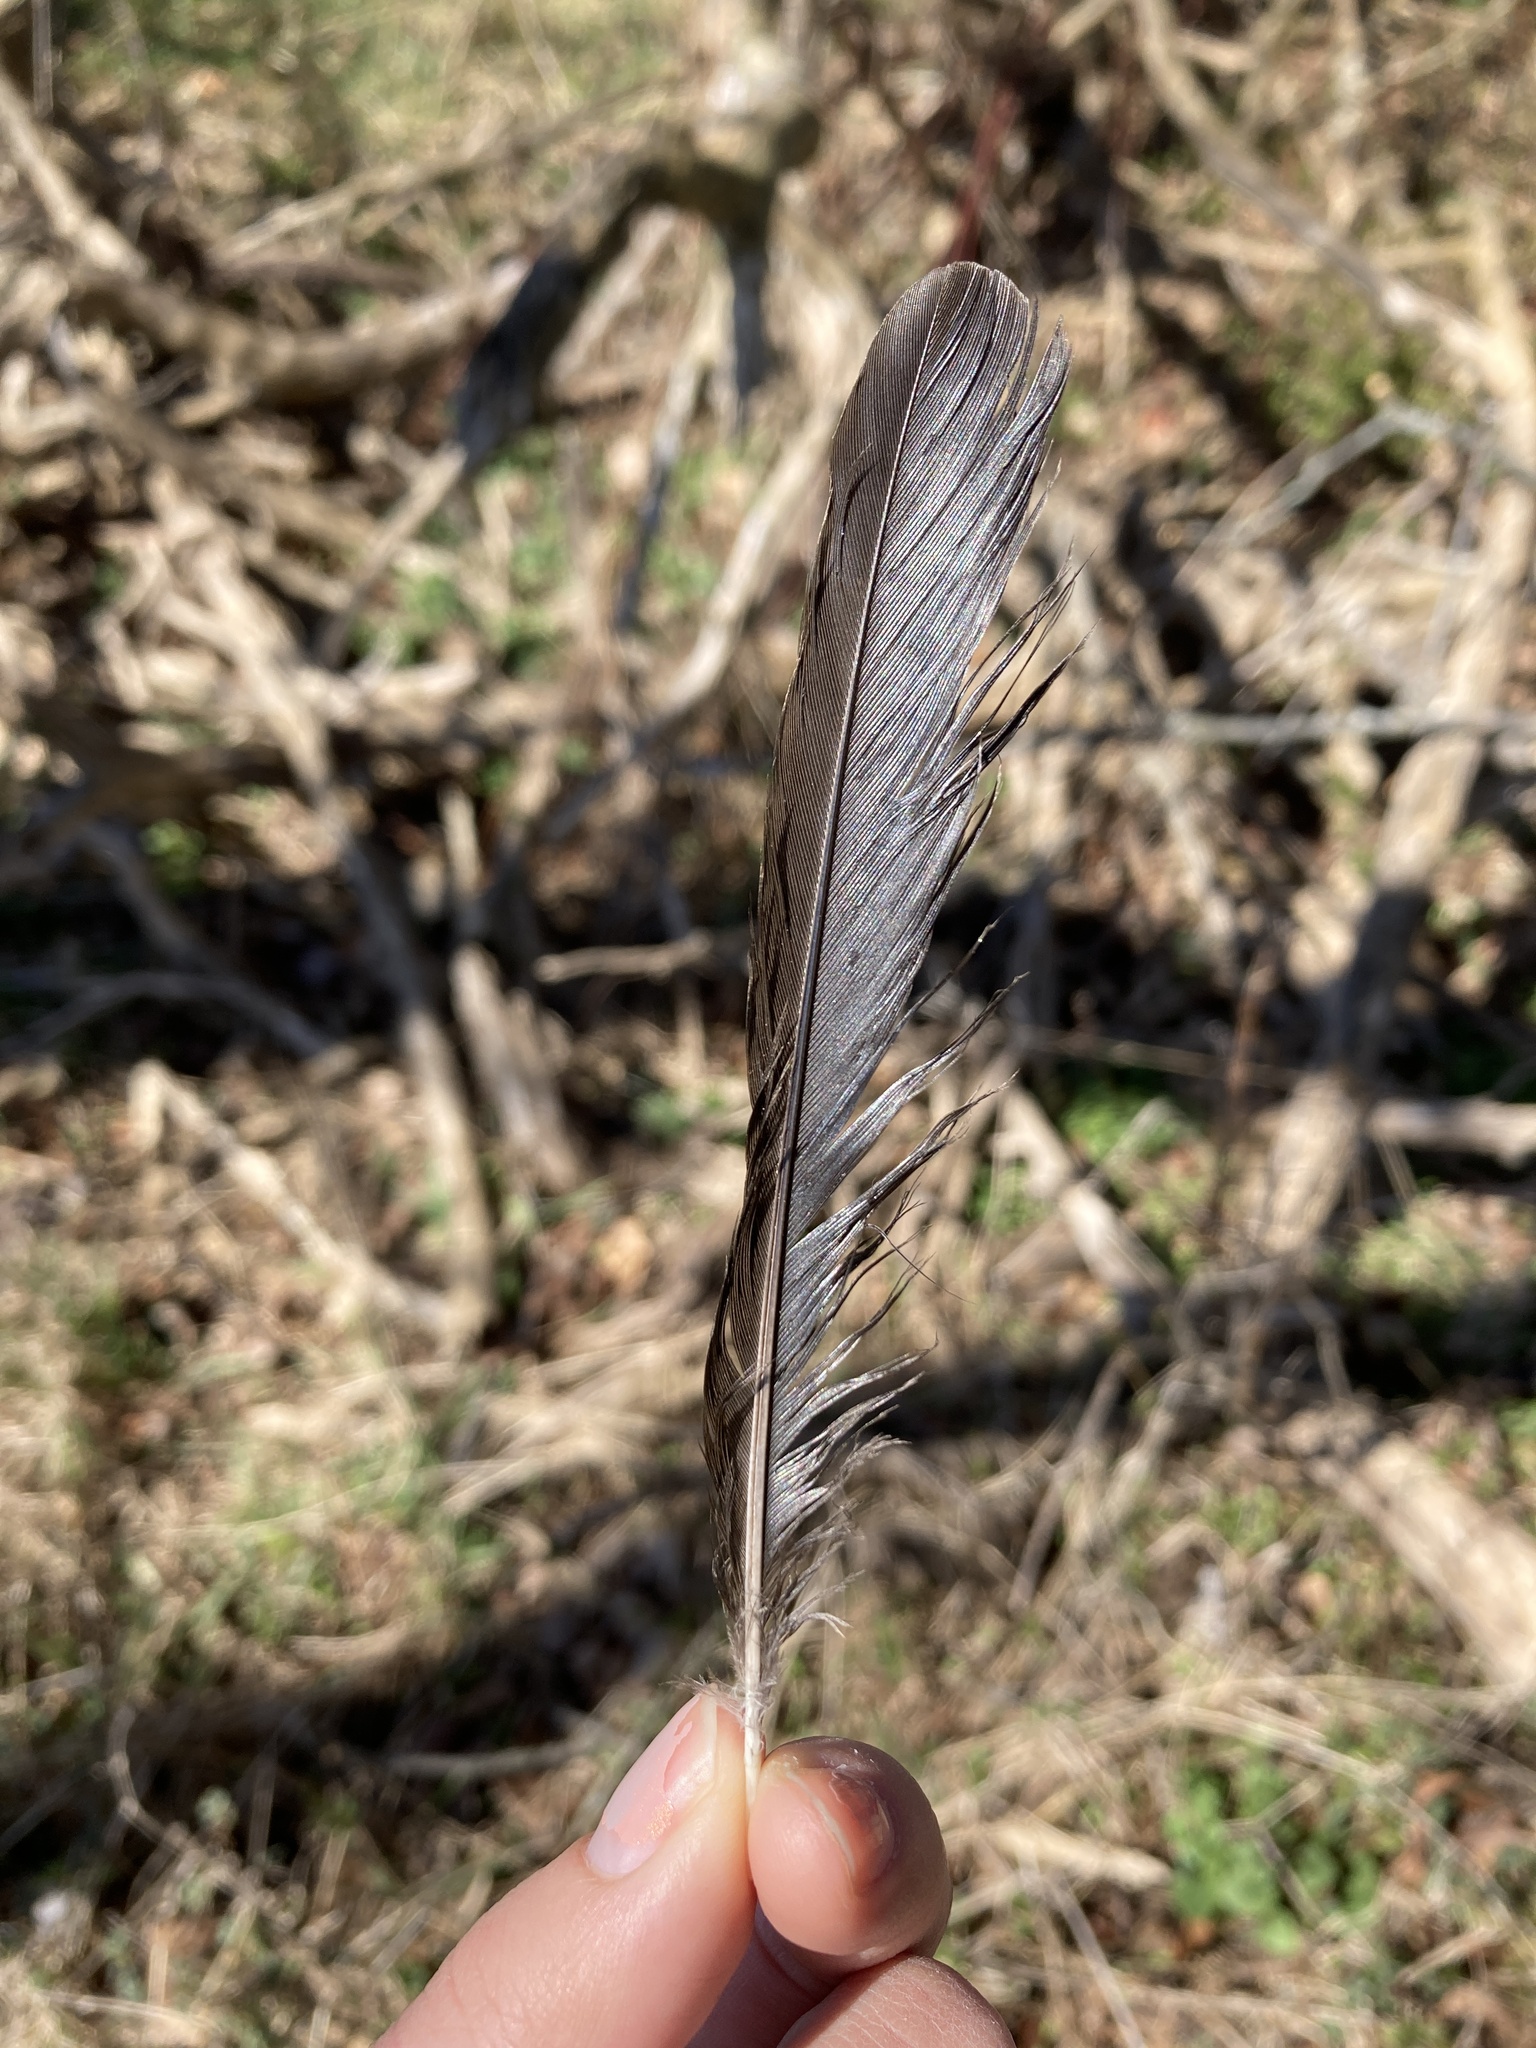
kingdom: Animalia
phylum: Chordata
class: Aves
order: Passeriformes
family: Icteridae
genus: Quiscalus
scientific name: Quiscalus quiscula
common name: Common grackle
